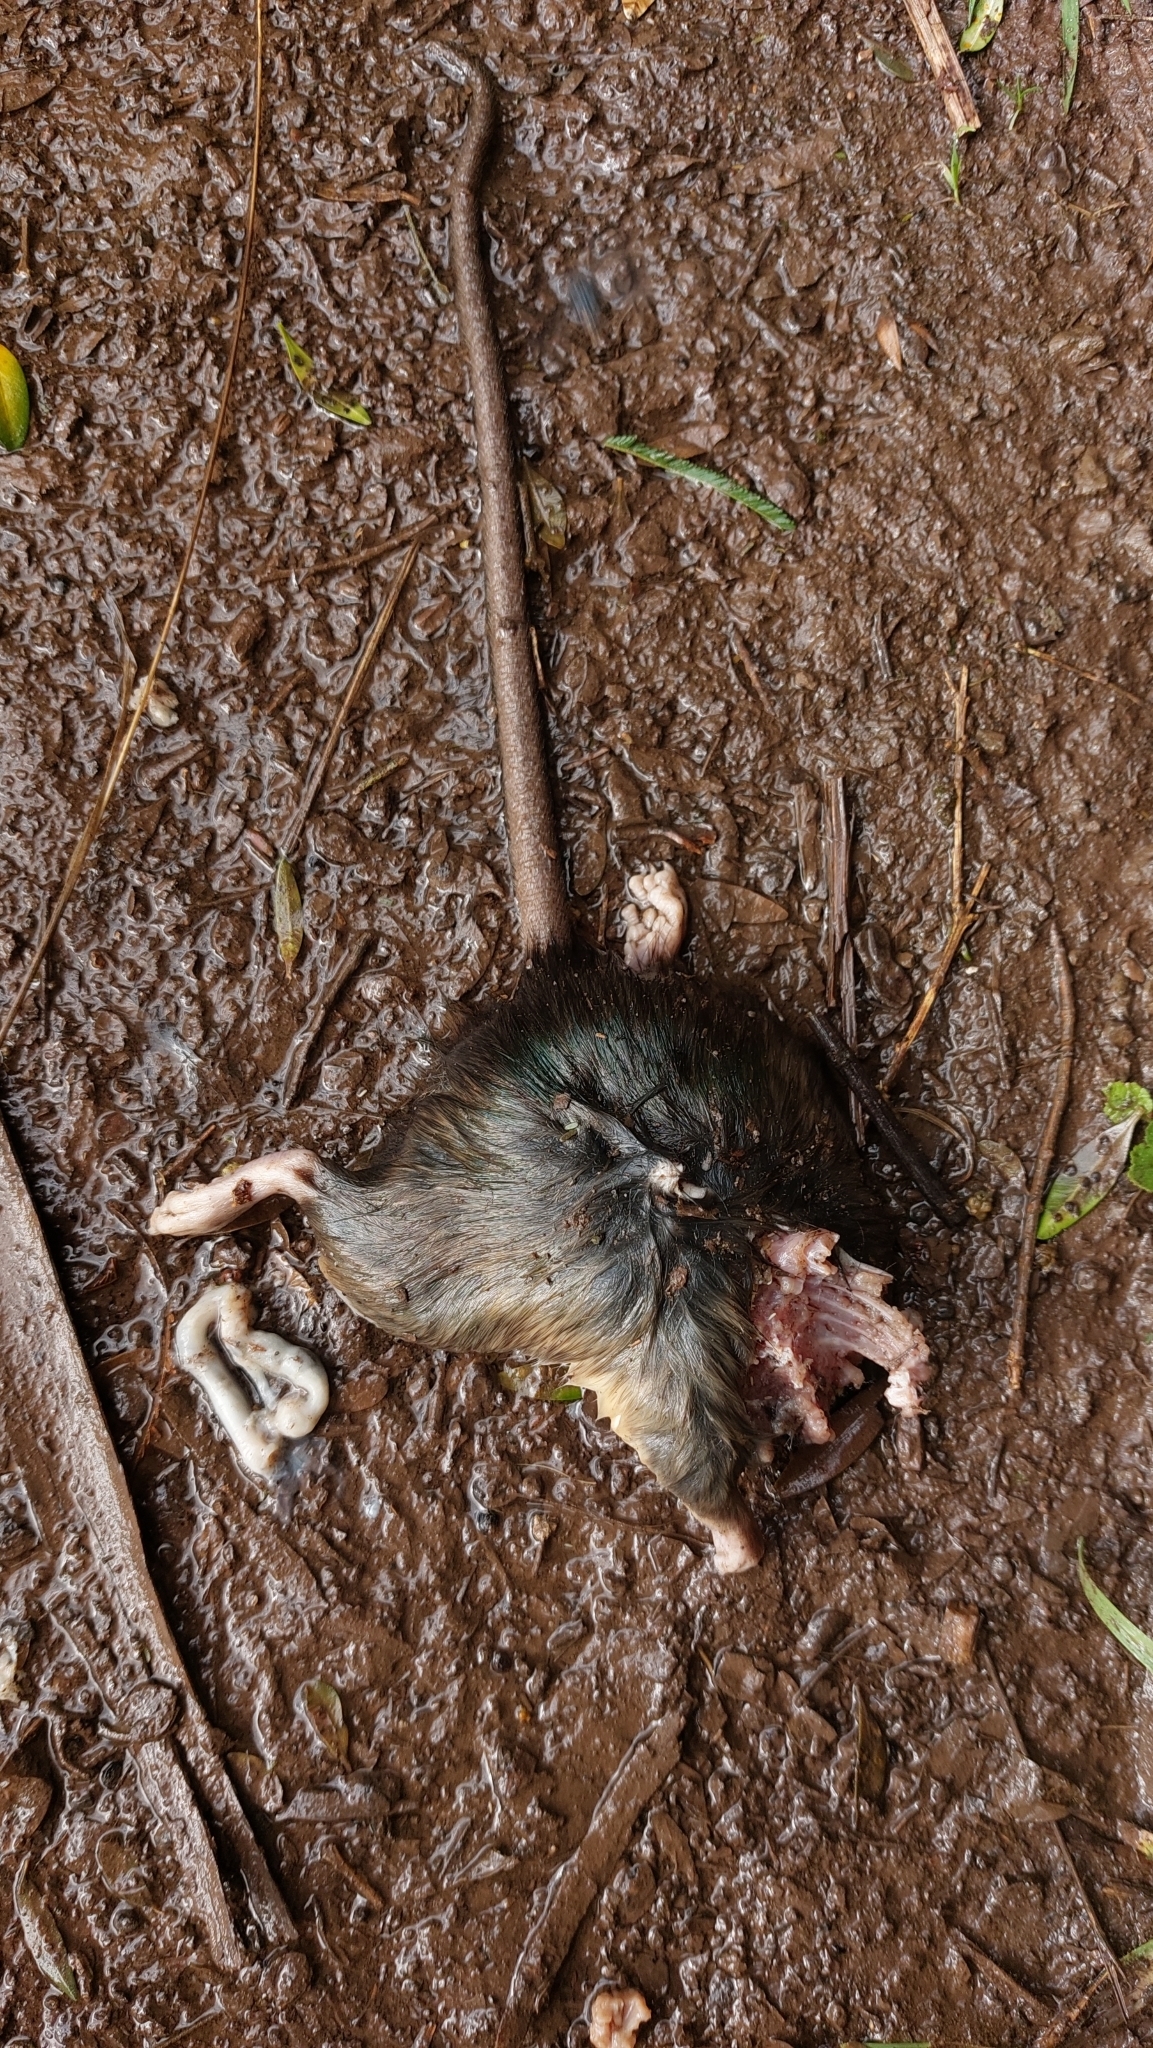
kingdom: Animalia
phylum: Chordata
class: Mammalia
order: Rodentia
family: Muridae
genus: Rattus
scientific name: Rattus norvegicus
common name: Brown rat
